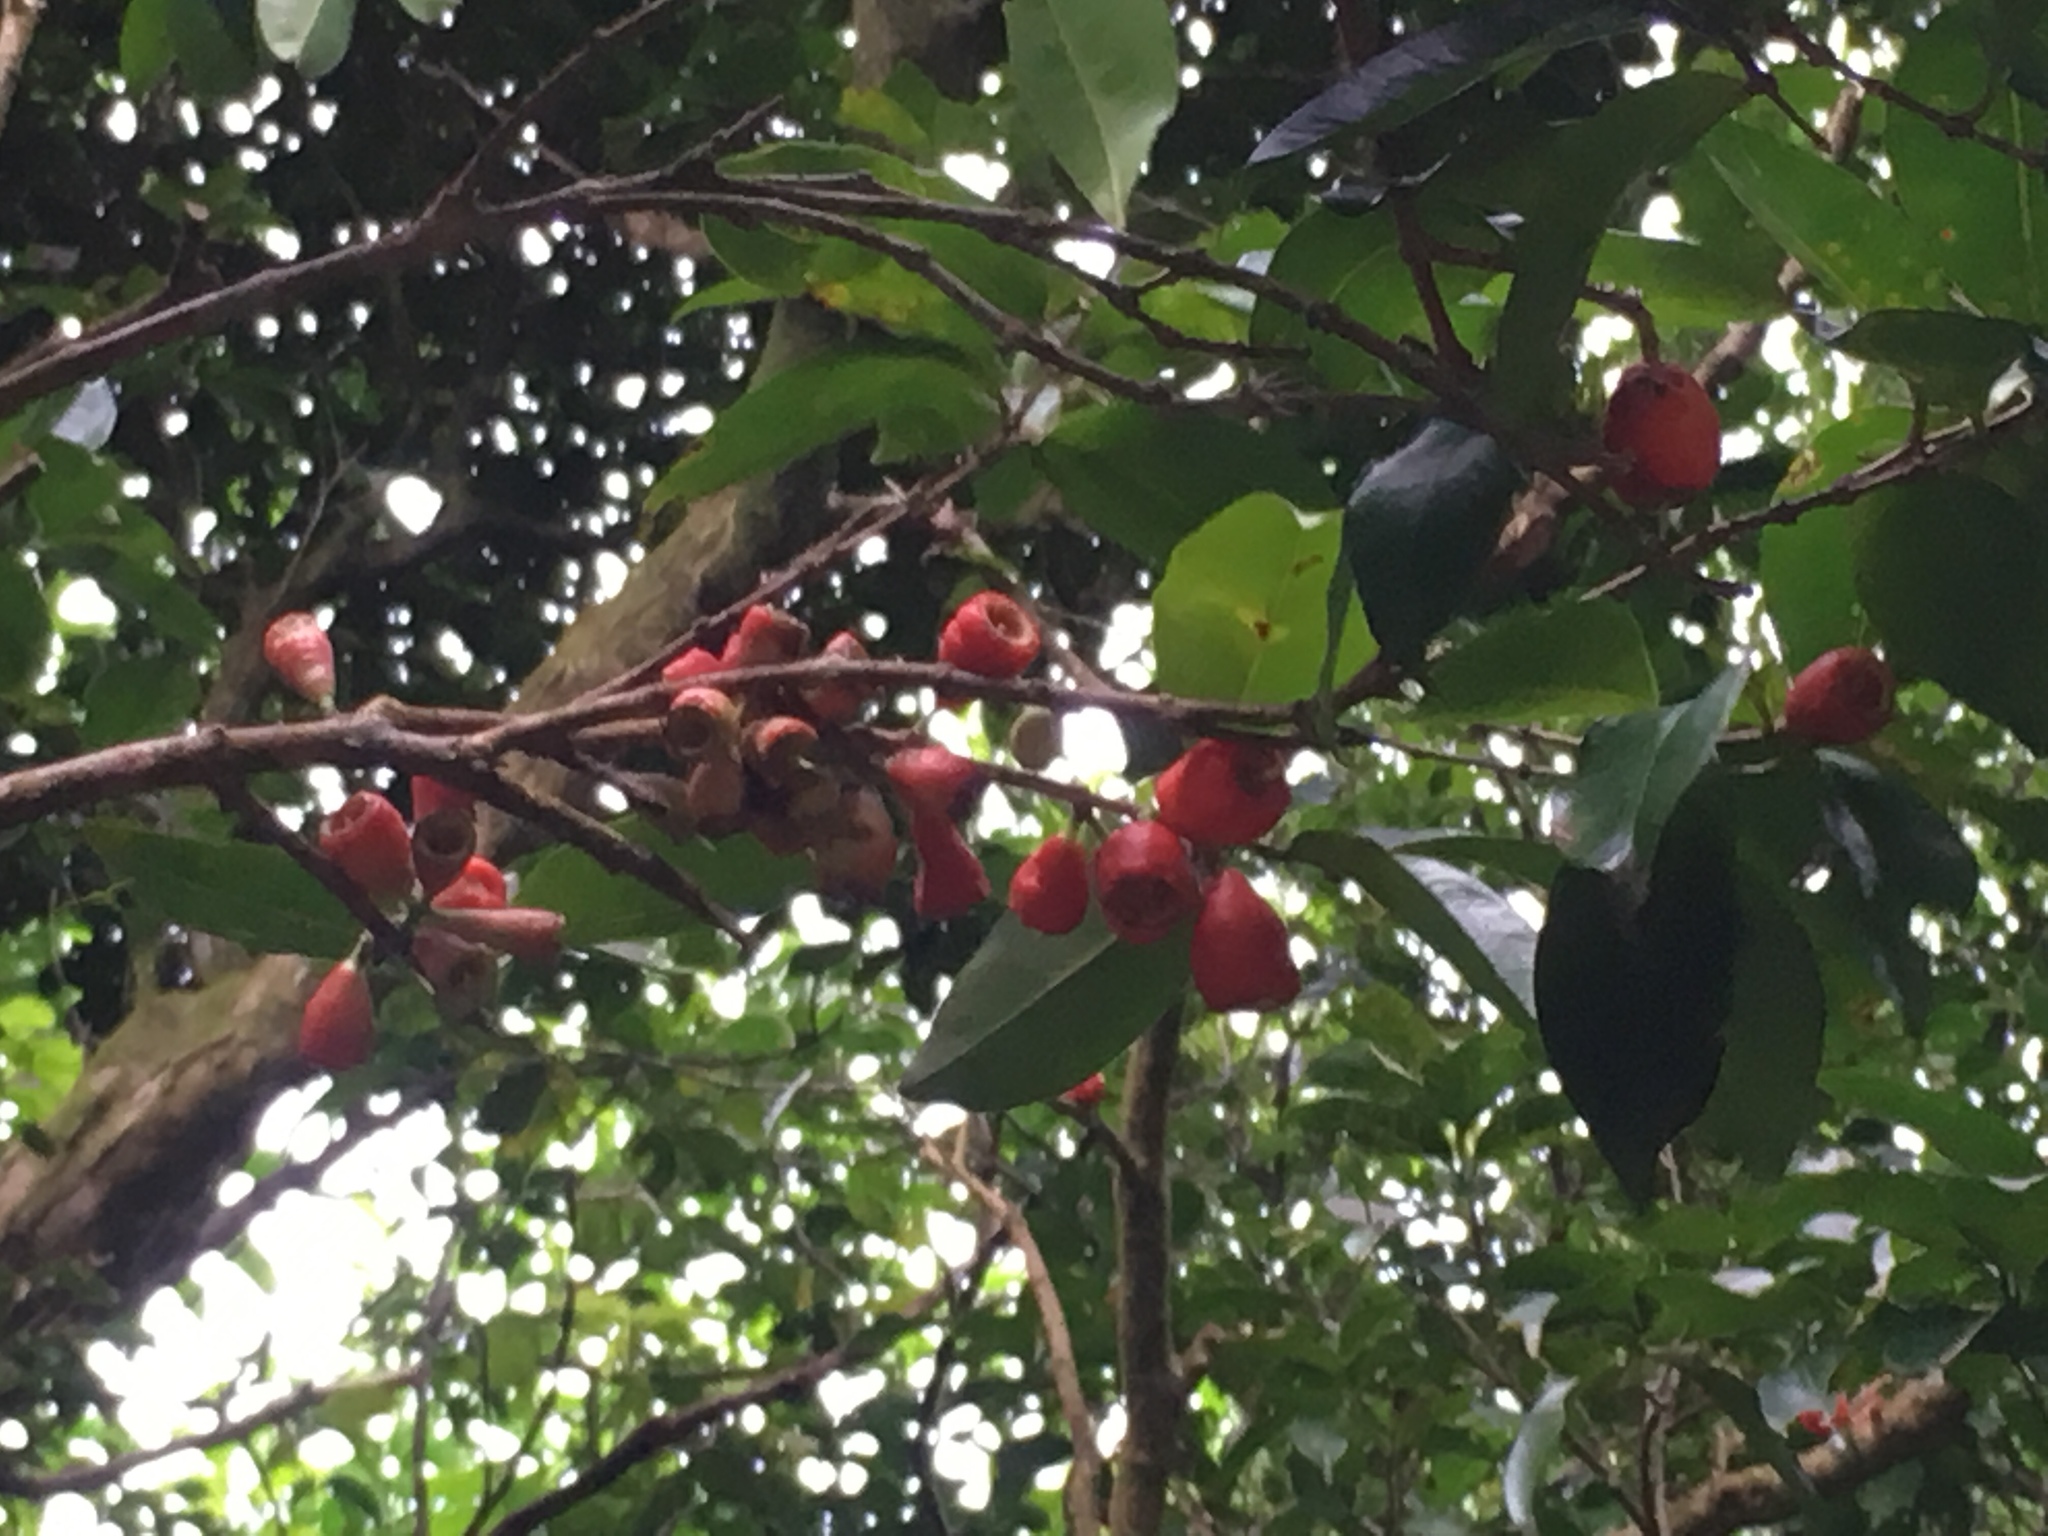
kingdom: Plantae
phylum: Tracheophyta
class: Magnoliopsida
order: Myrtales
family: Myrtaceae
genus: Syzygium
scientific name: Syzygium taiwanicum
